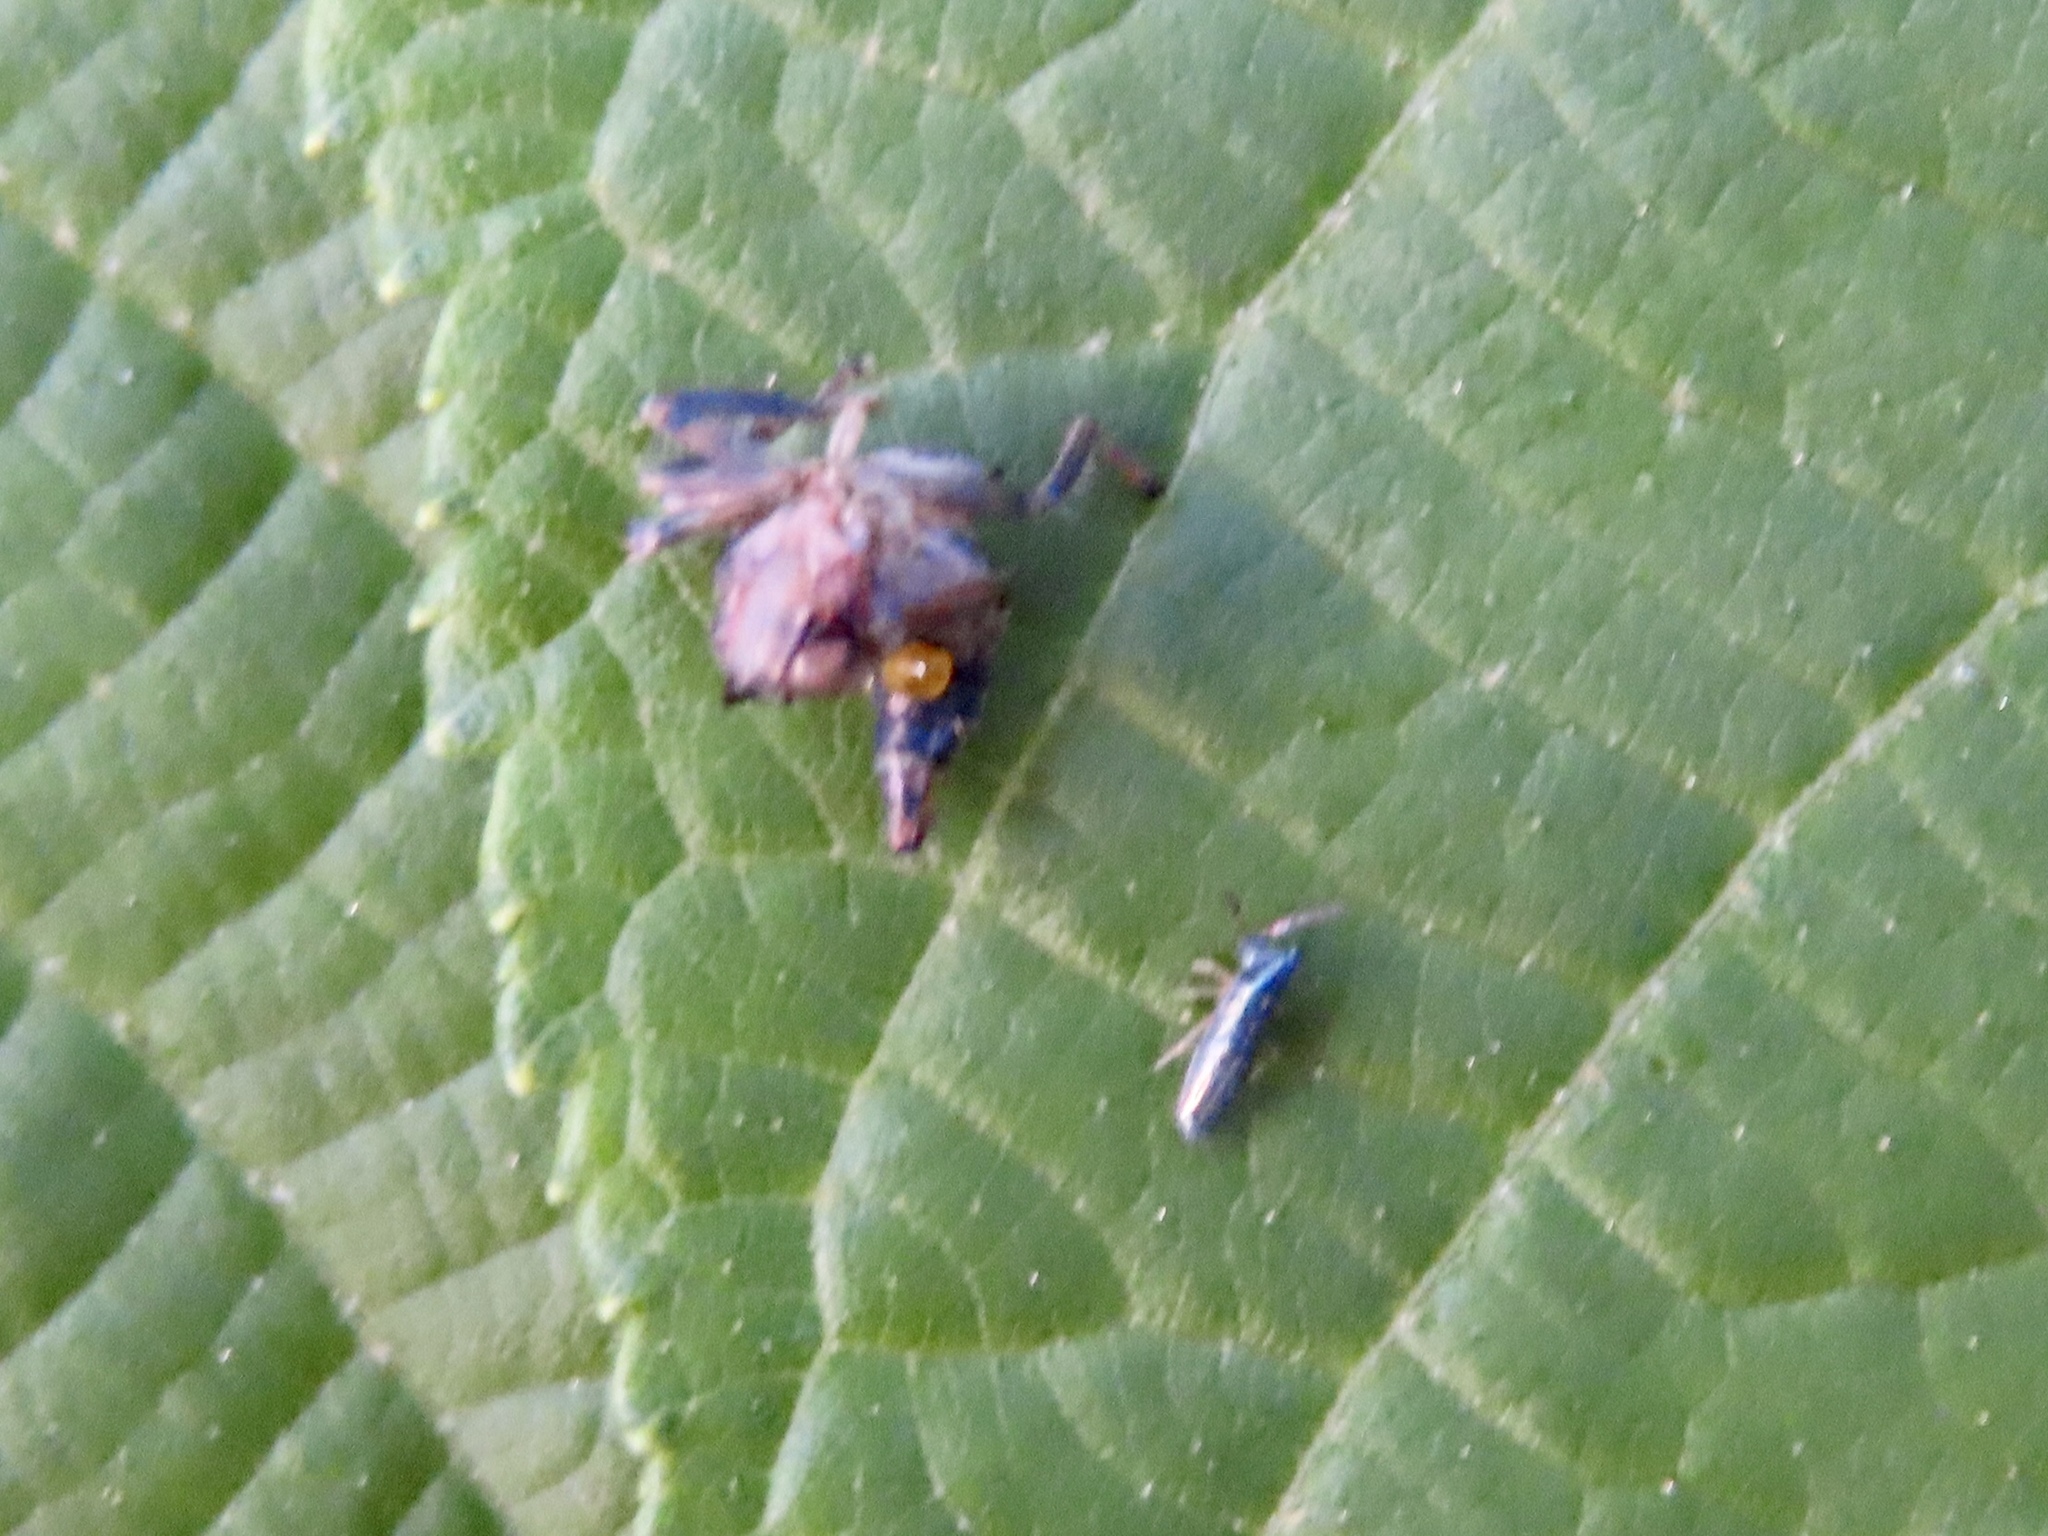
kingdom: Animalia
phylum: Arthropoda
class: Collembola
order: Entomobryomorpha
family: Entomobryidae
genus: Lepidocyrtus
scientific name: Lepidocyrtus paradoxus
